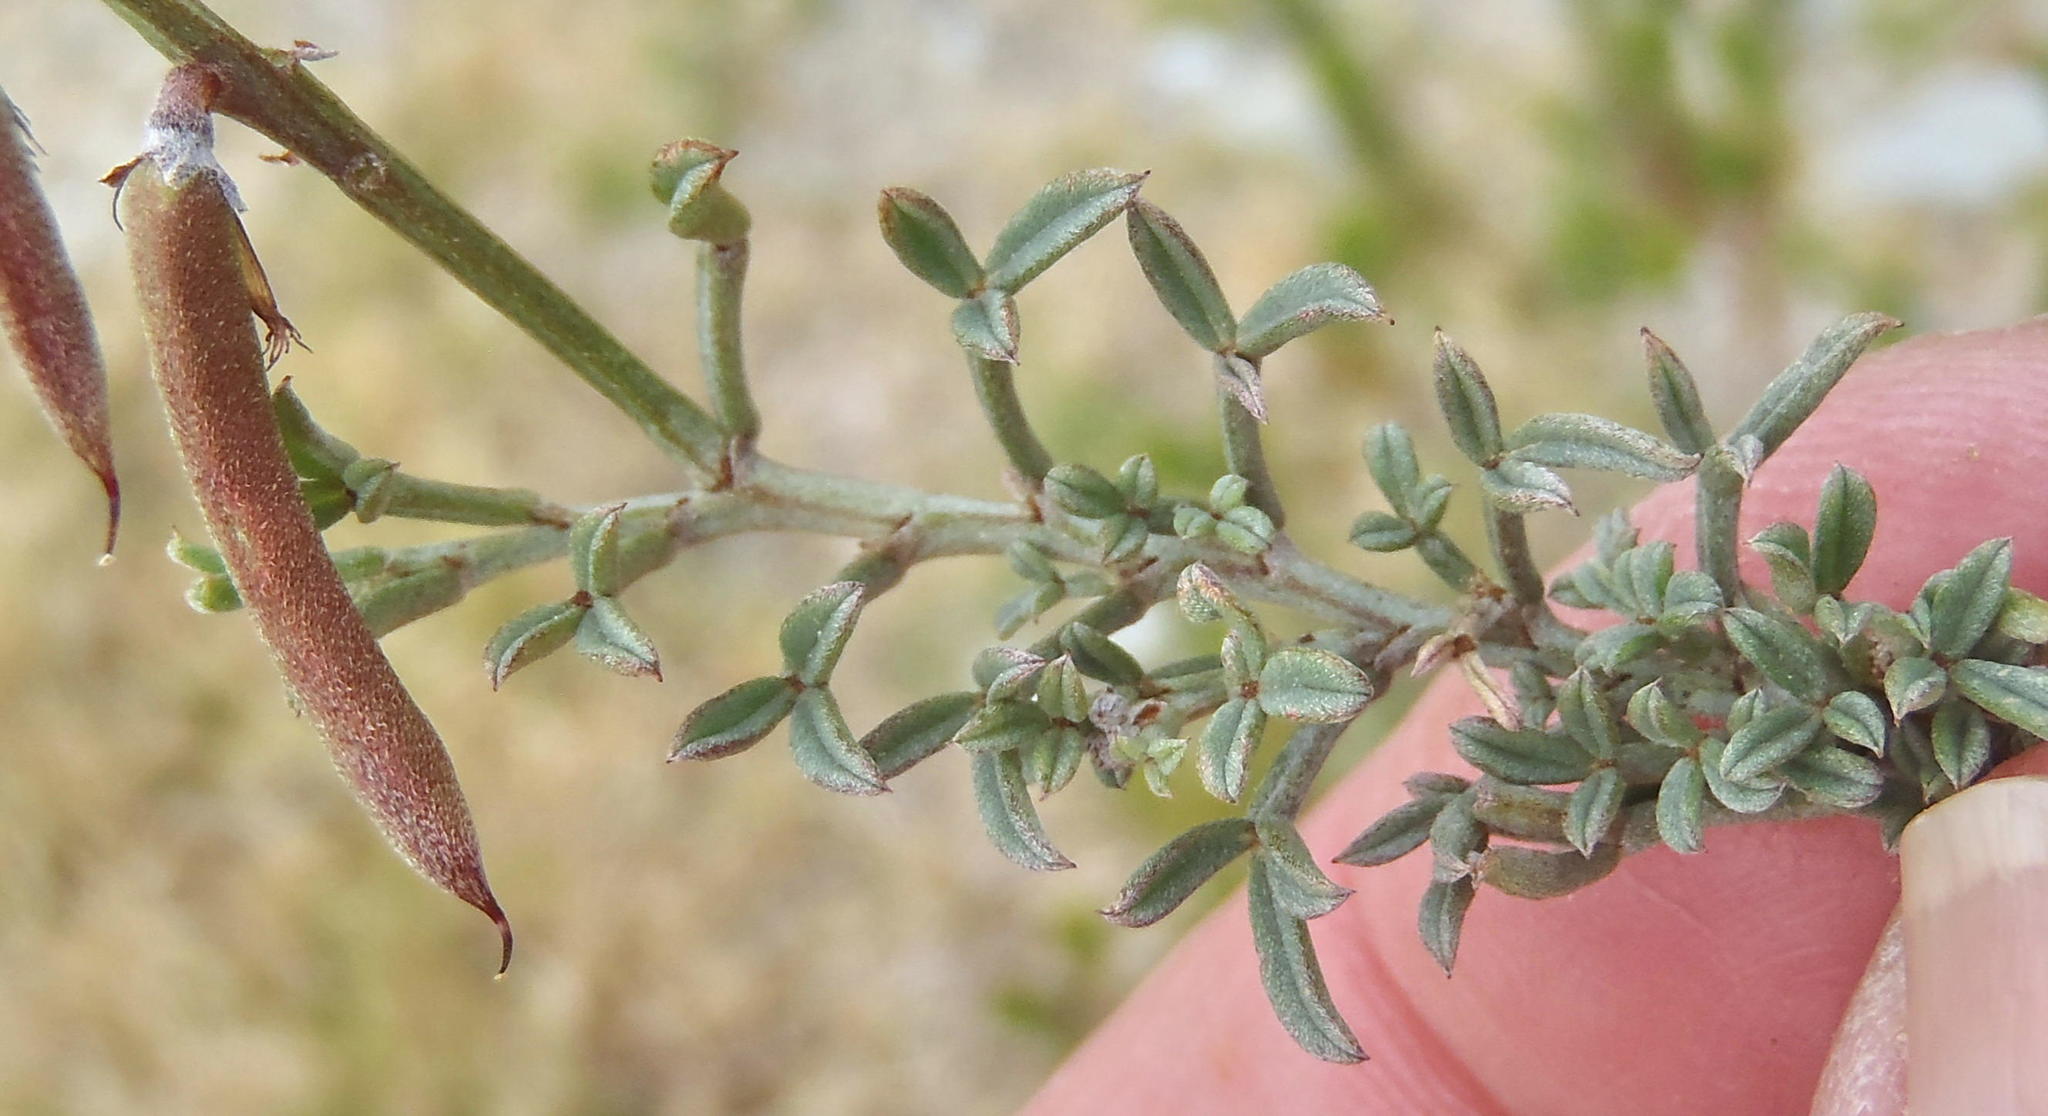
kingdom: Plantae
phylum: Tracheophyta
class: Magnoliopsida
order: Fabales
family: Fabaceae
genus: Indigofera
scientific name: Indigofera meyeriana
